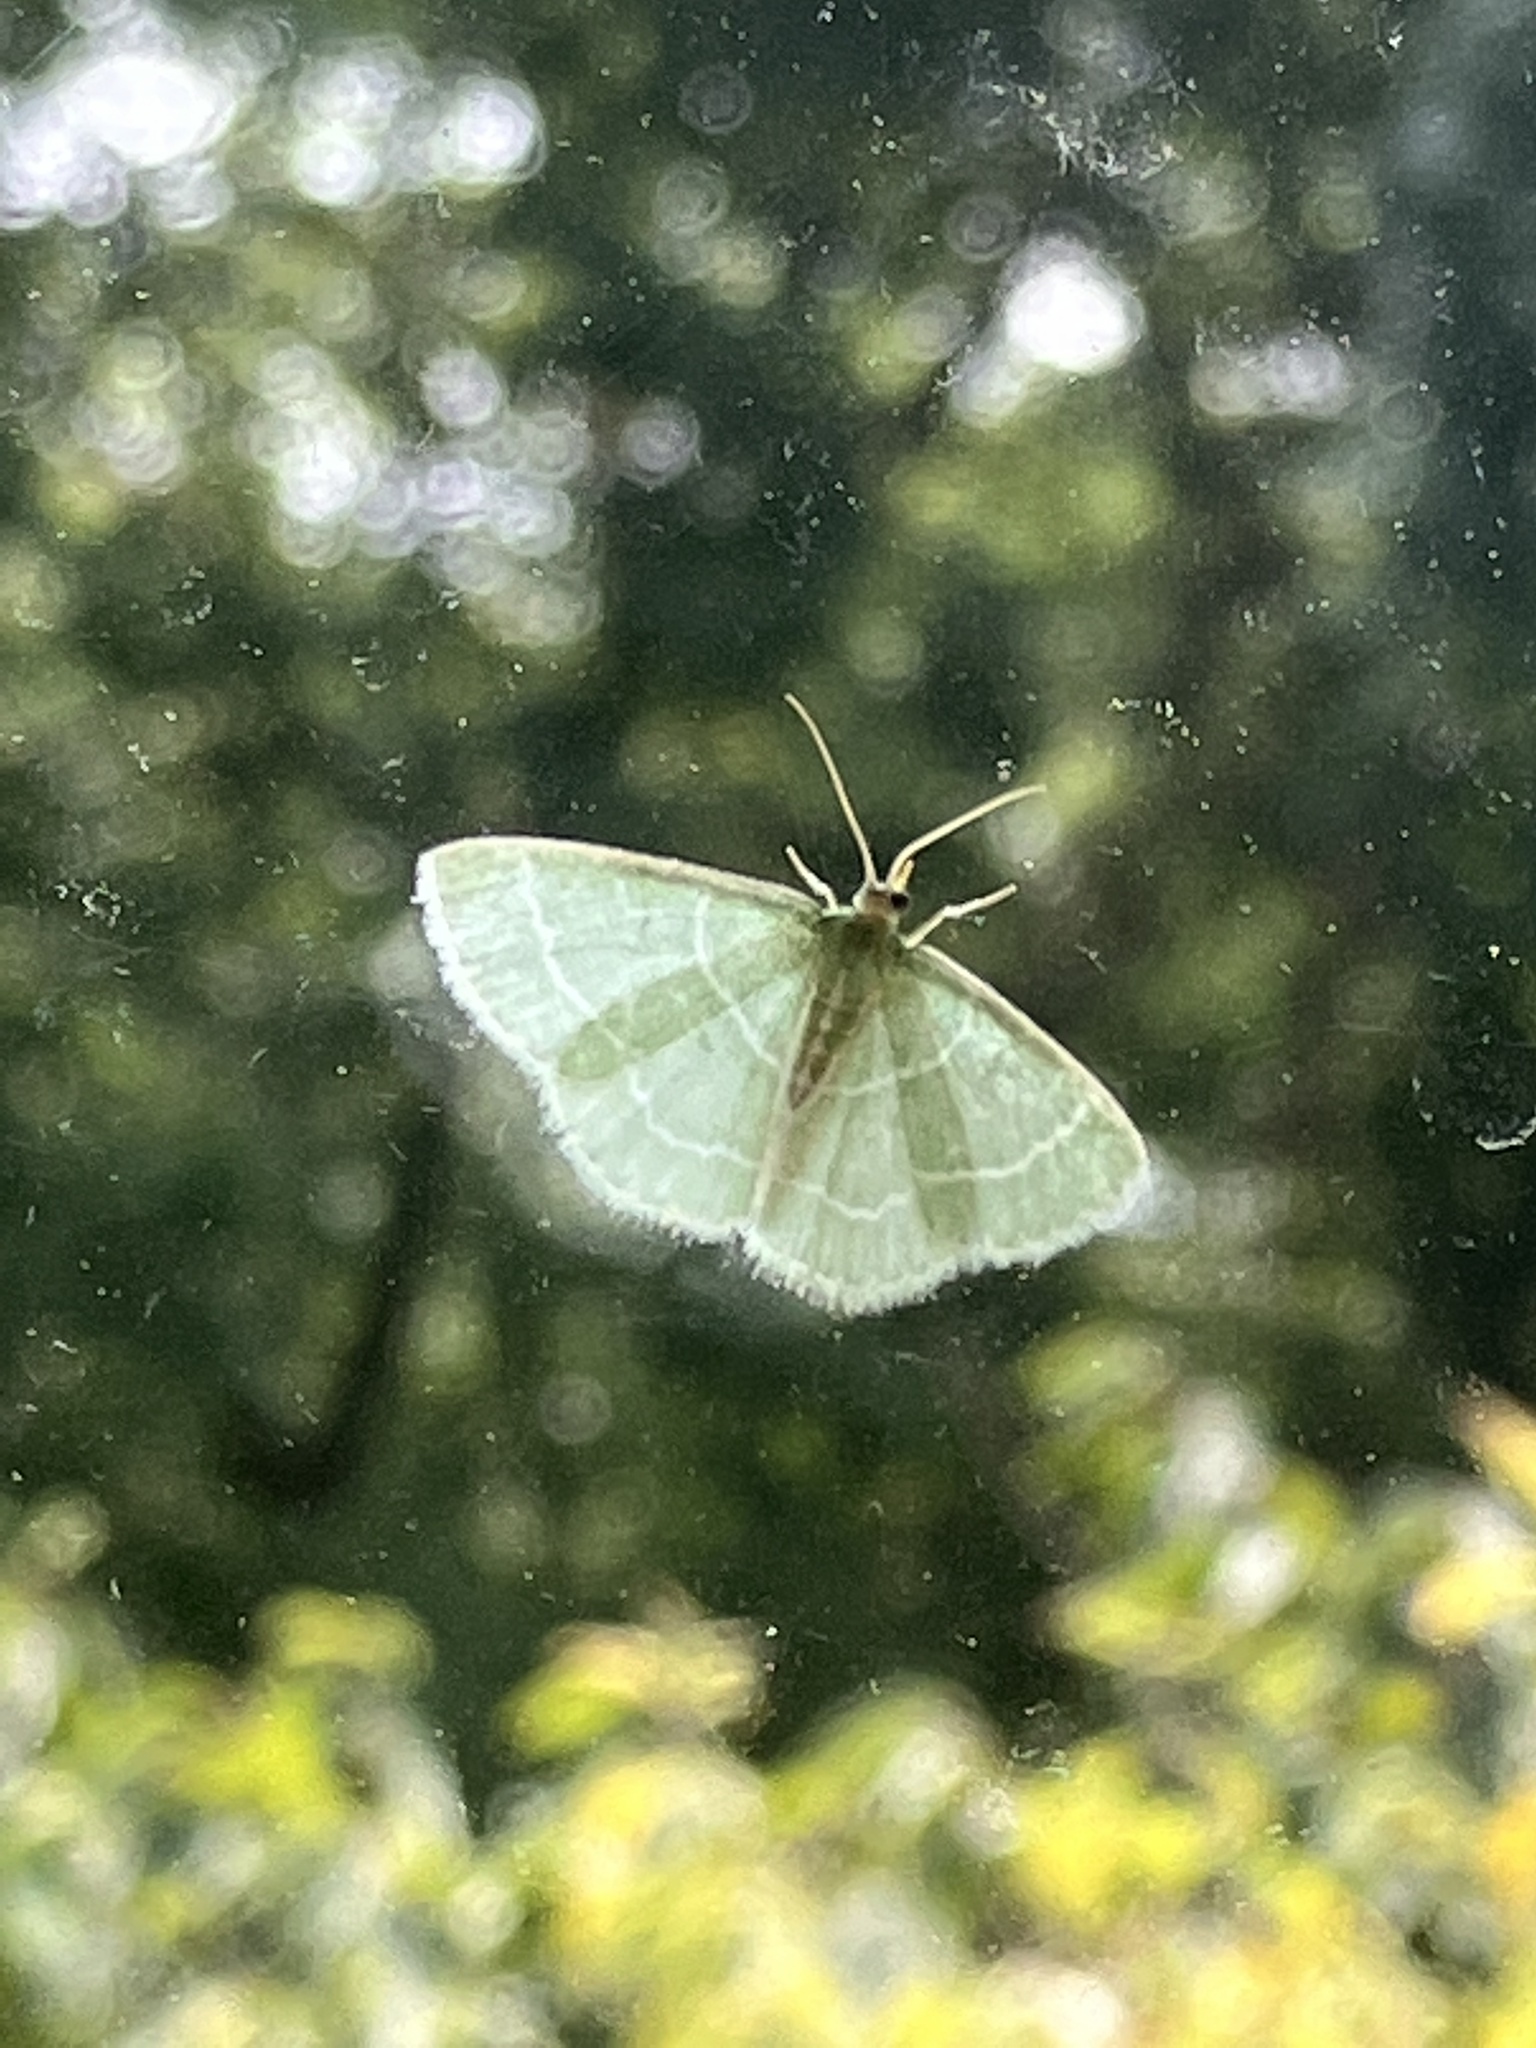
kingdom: Animalia
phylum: Arthropoda
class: Insecta
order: Lepidoptera
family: Geometridae
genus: Synchlora
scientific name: Synchlora aerata
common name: Wavy-lined emerald
